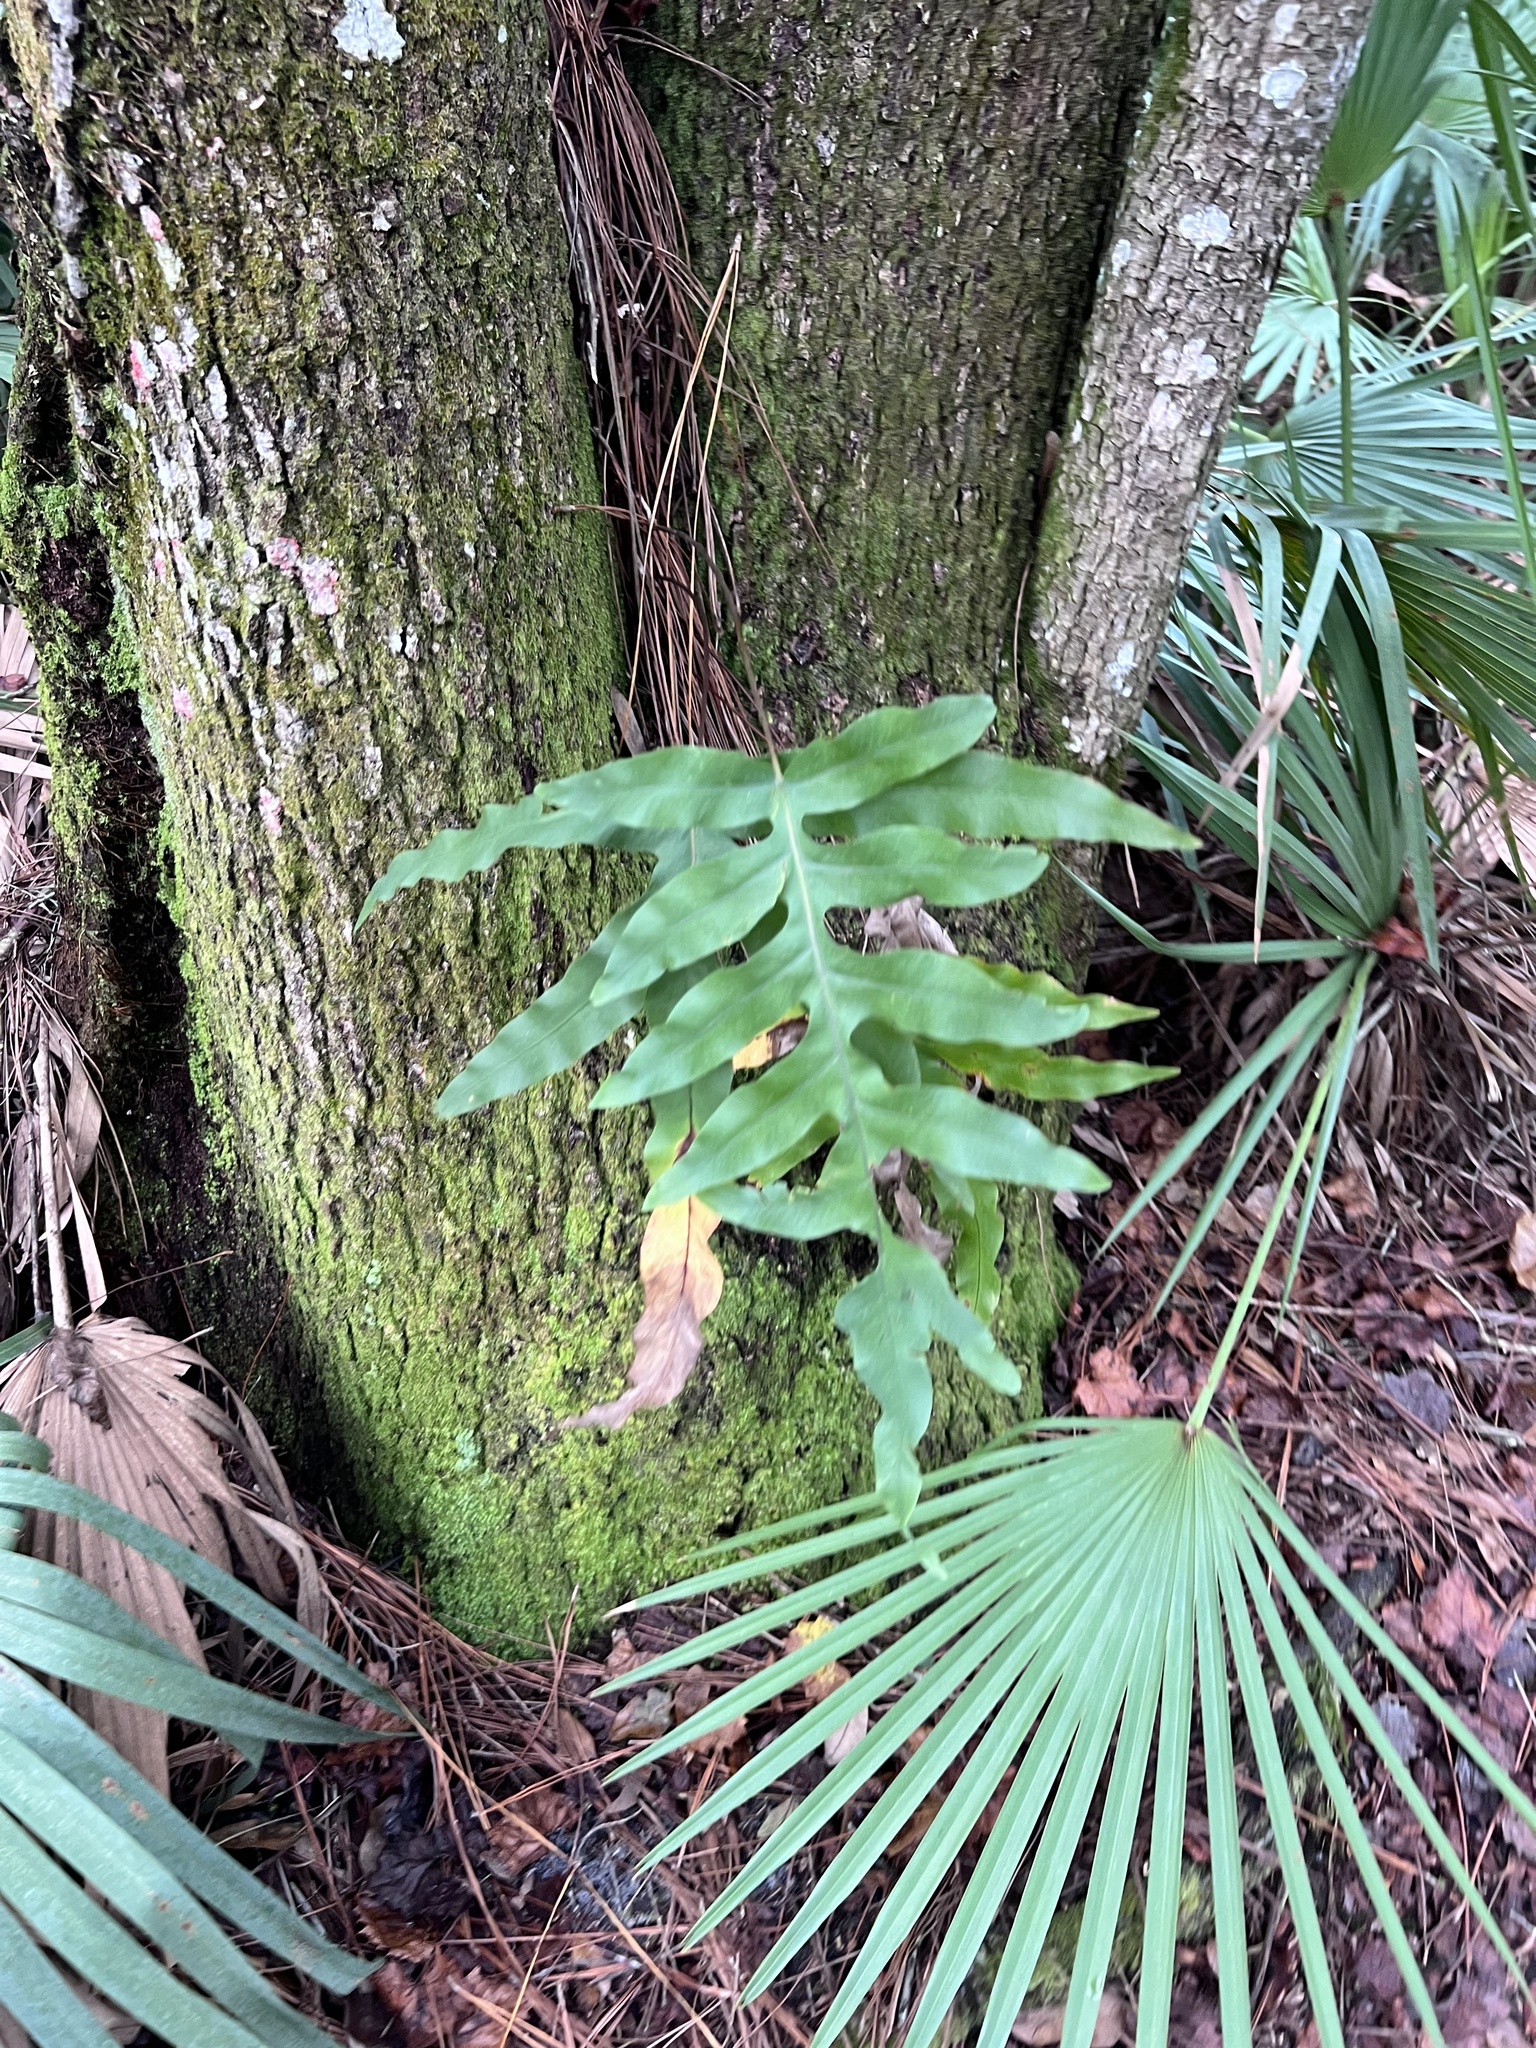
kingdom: Plantae
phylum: Tracheophyta
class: Polypodiopsida
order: Polypodiales
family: Polypodiaceae
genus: Phlebodium
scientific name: Phlebodium aureum
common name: Gold-foot fern
